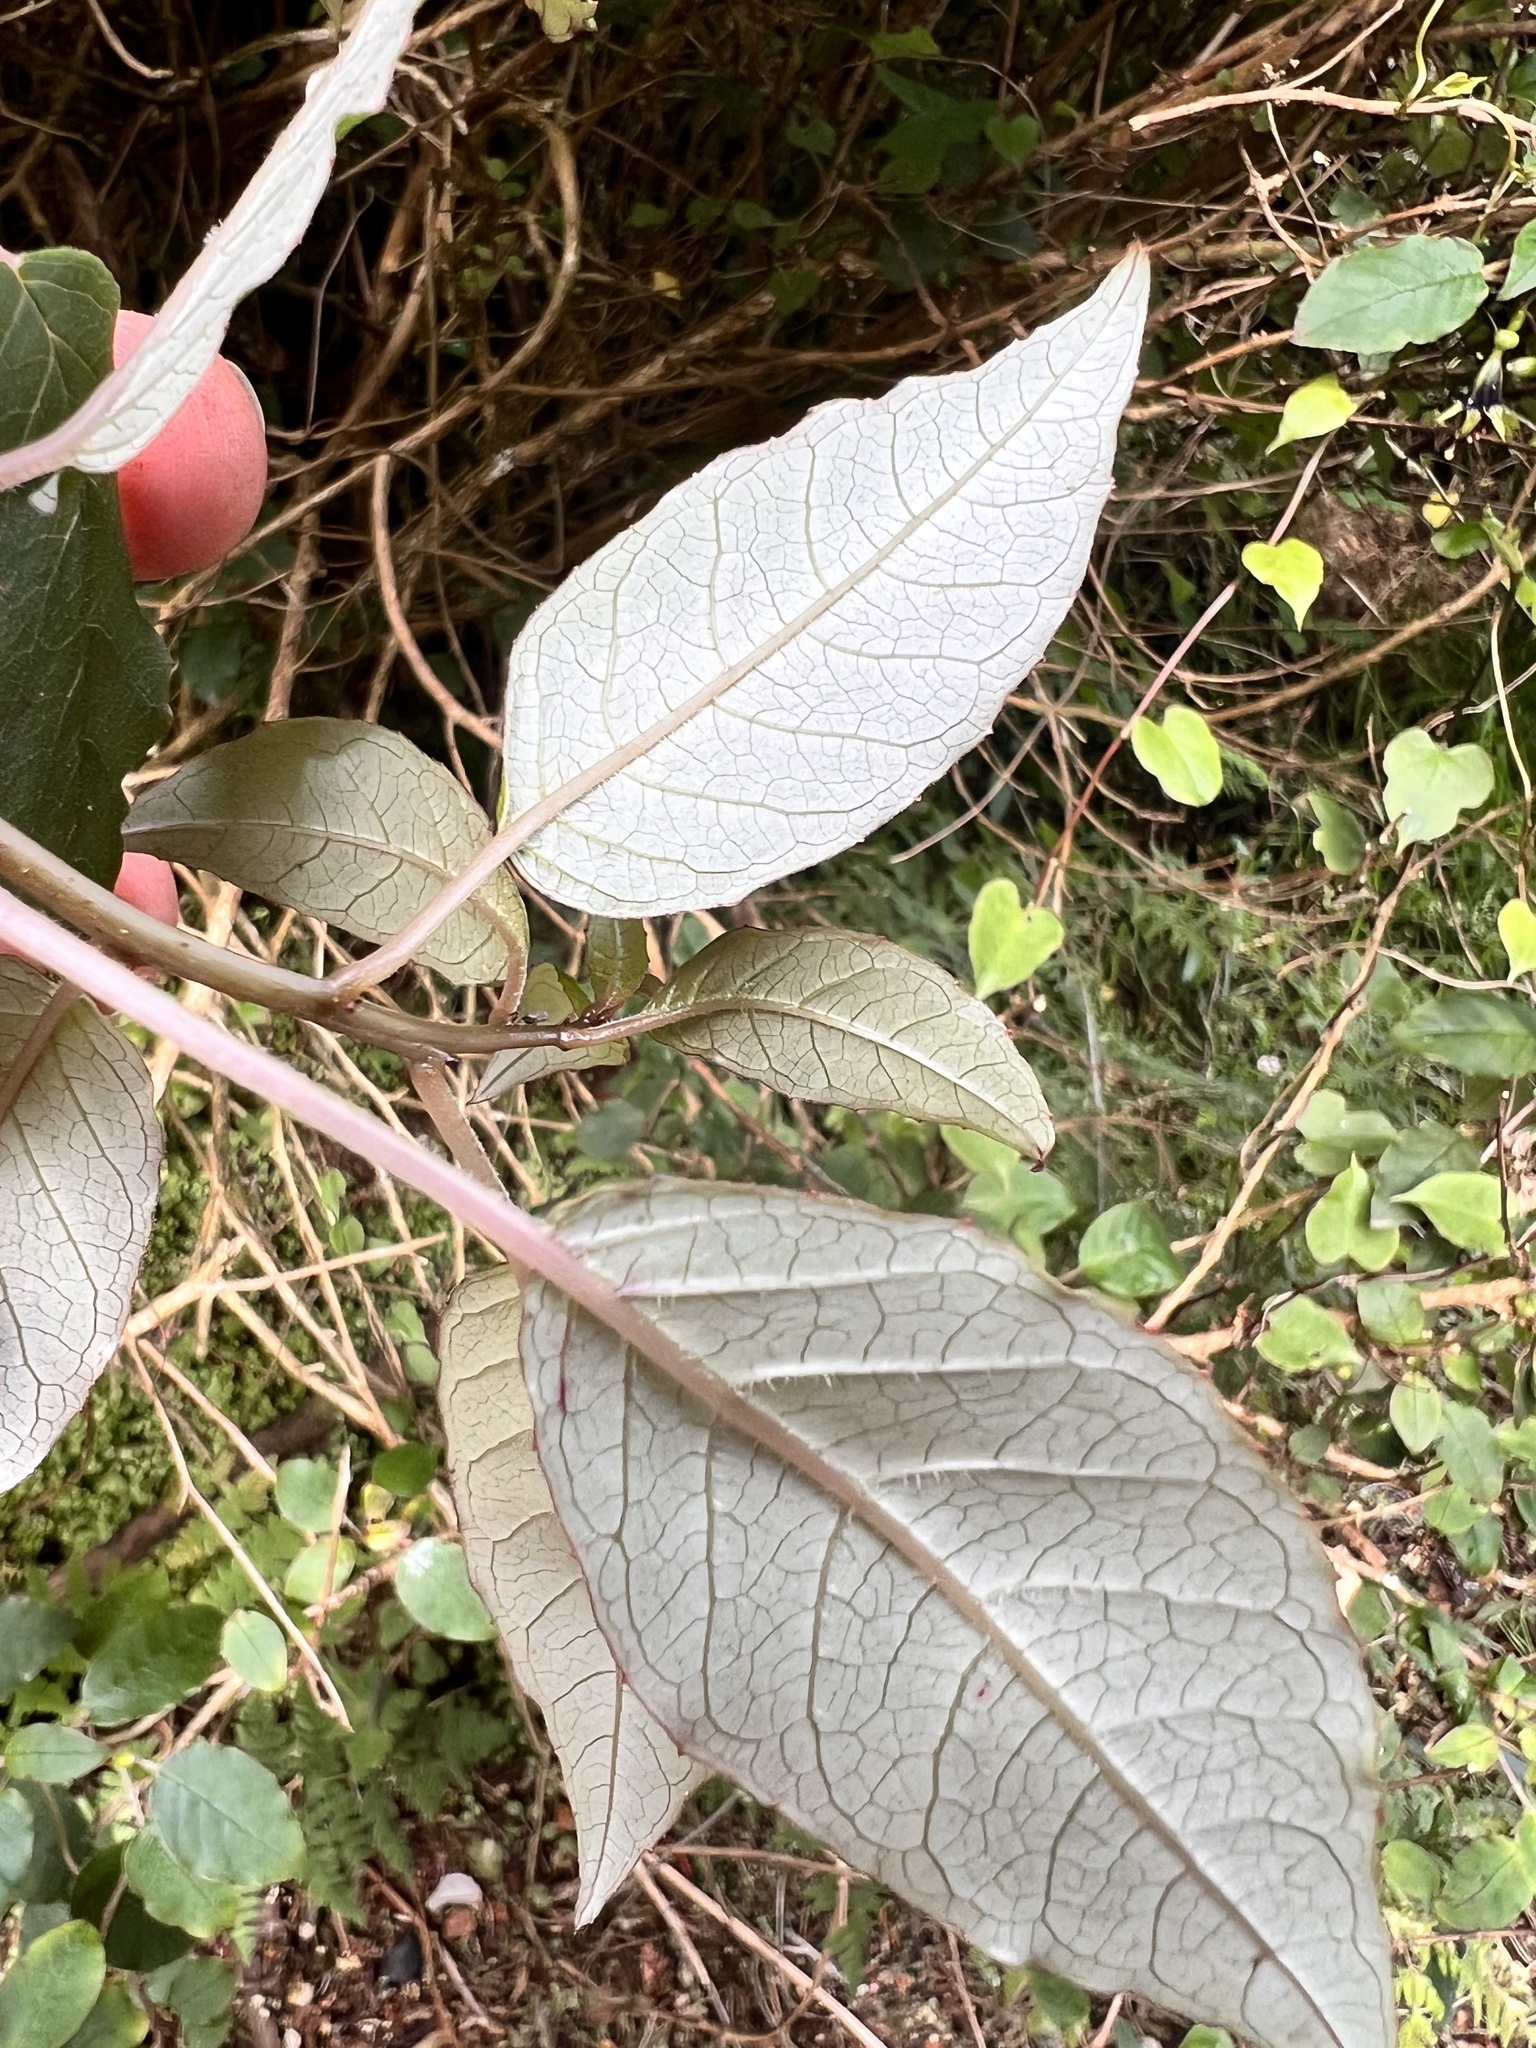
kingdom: Plantae
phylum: Tracheophyta
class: Magnoliopsida
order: Myrtales
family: Onagraceae
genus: Fuchsia
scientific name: Fuchsia excorticata
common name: Tree fuchsia
